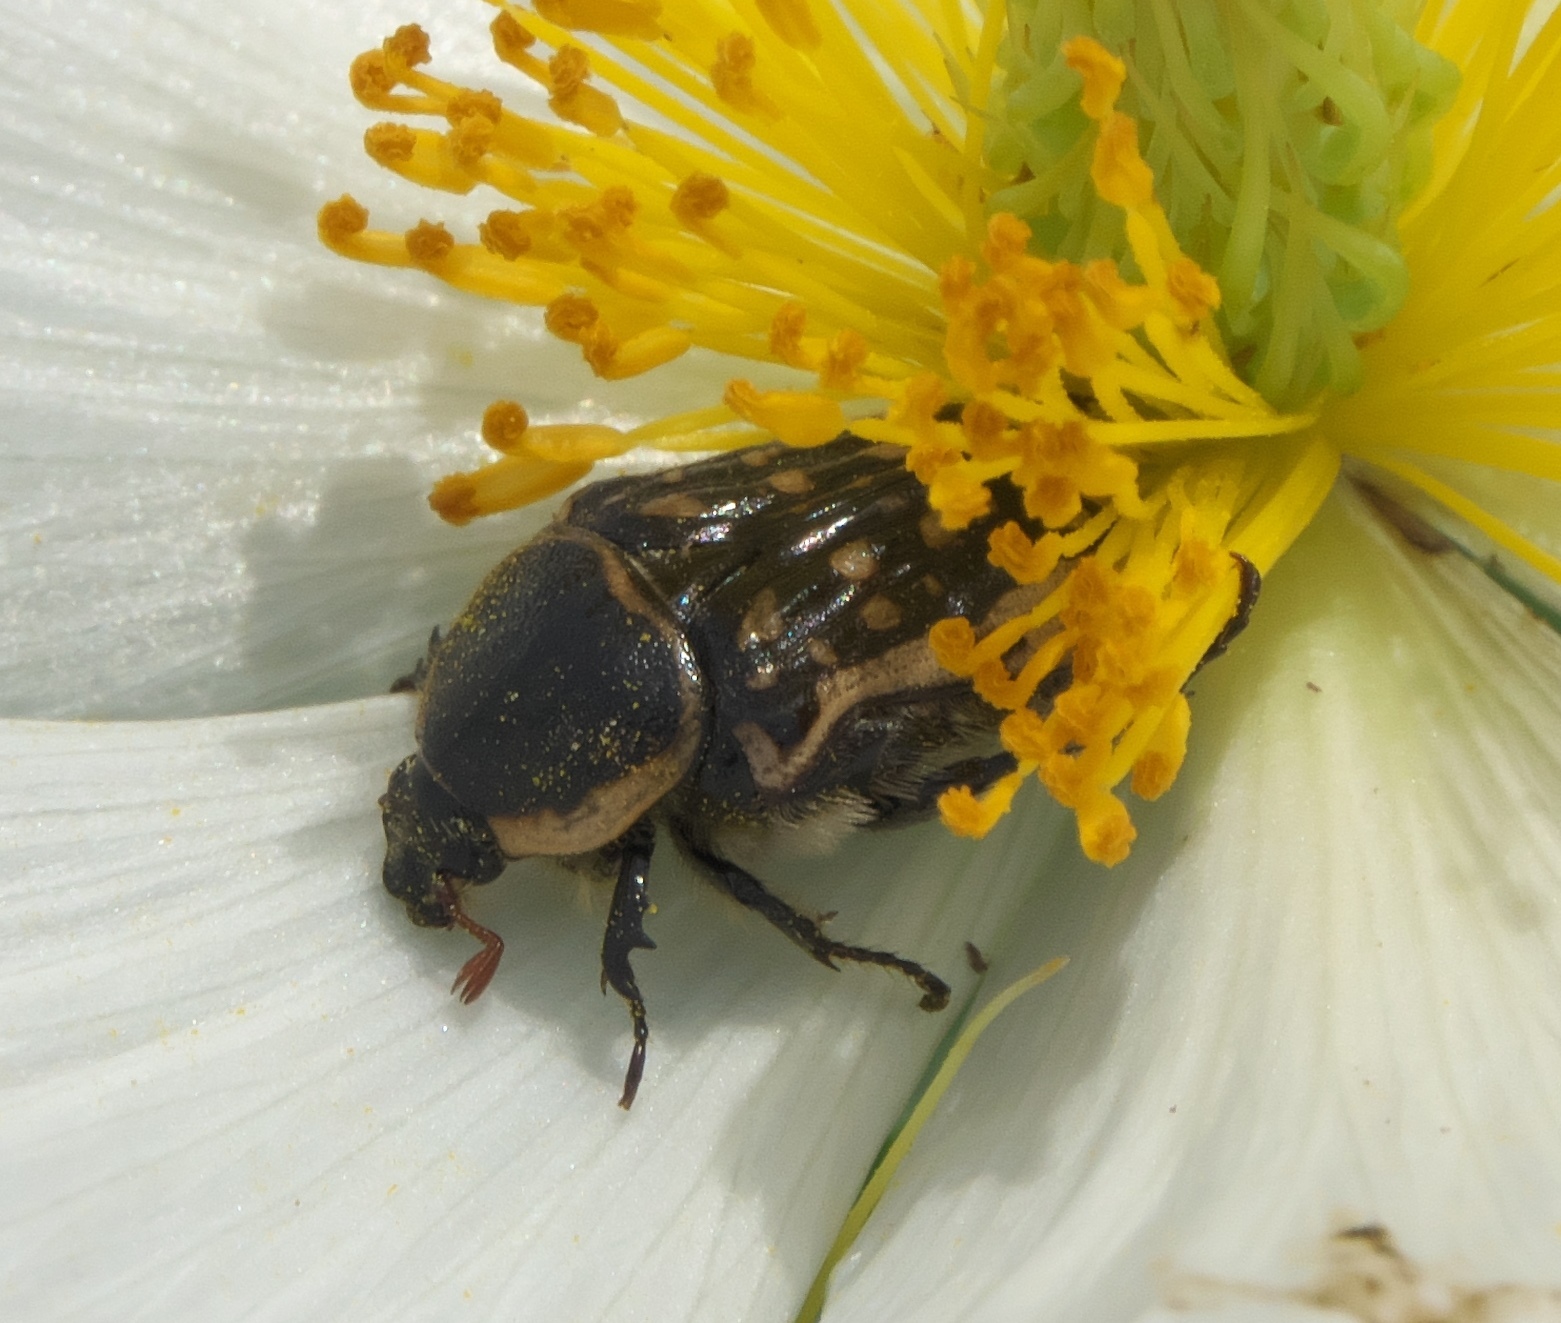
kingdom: Animalia
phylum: Arthropoda
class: Insecta
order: Coleoptera
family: Scarabaeidae
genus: Euphoria
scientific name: Euphoria kernii
